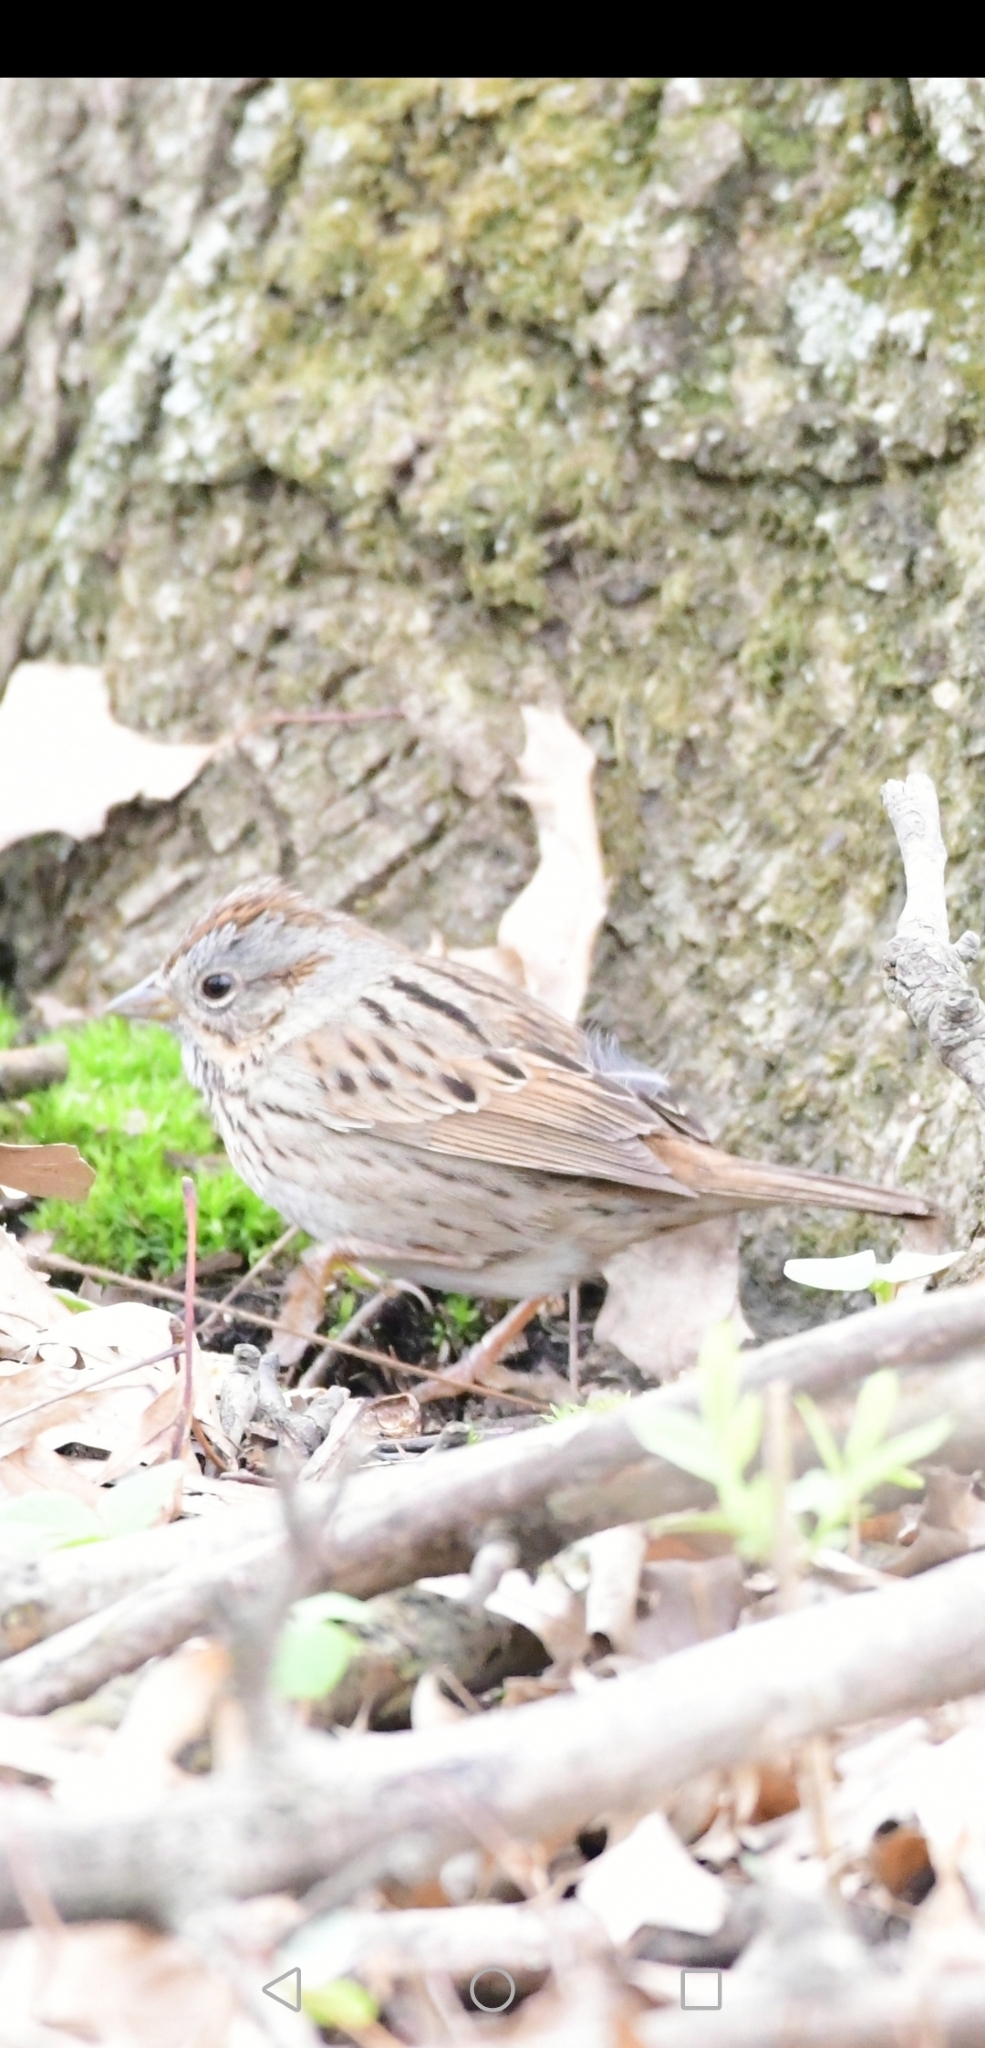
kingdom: Animalia
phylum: Chordata
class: Aves
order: Passeriformes
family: Passerellidae
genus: Melospiza
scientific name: Melospiza lincolnii
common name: Lincoln's sparrow
